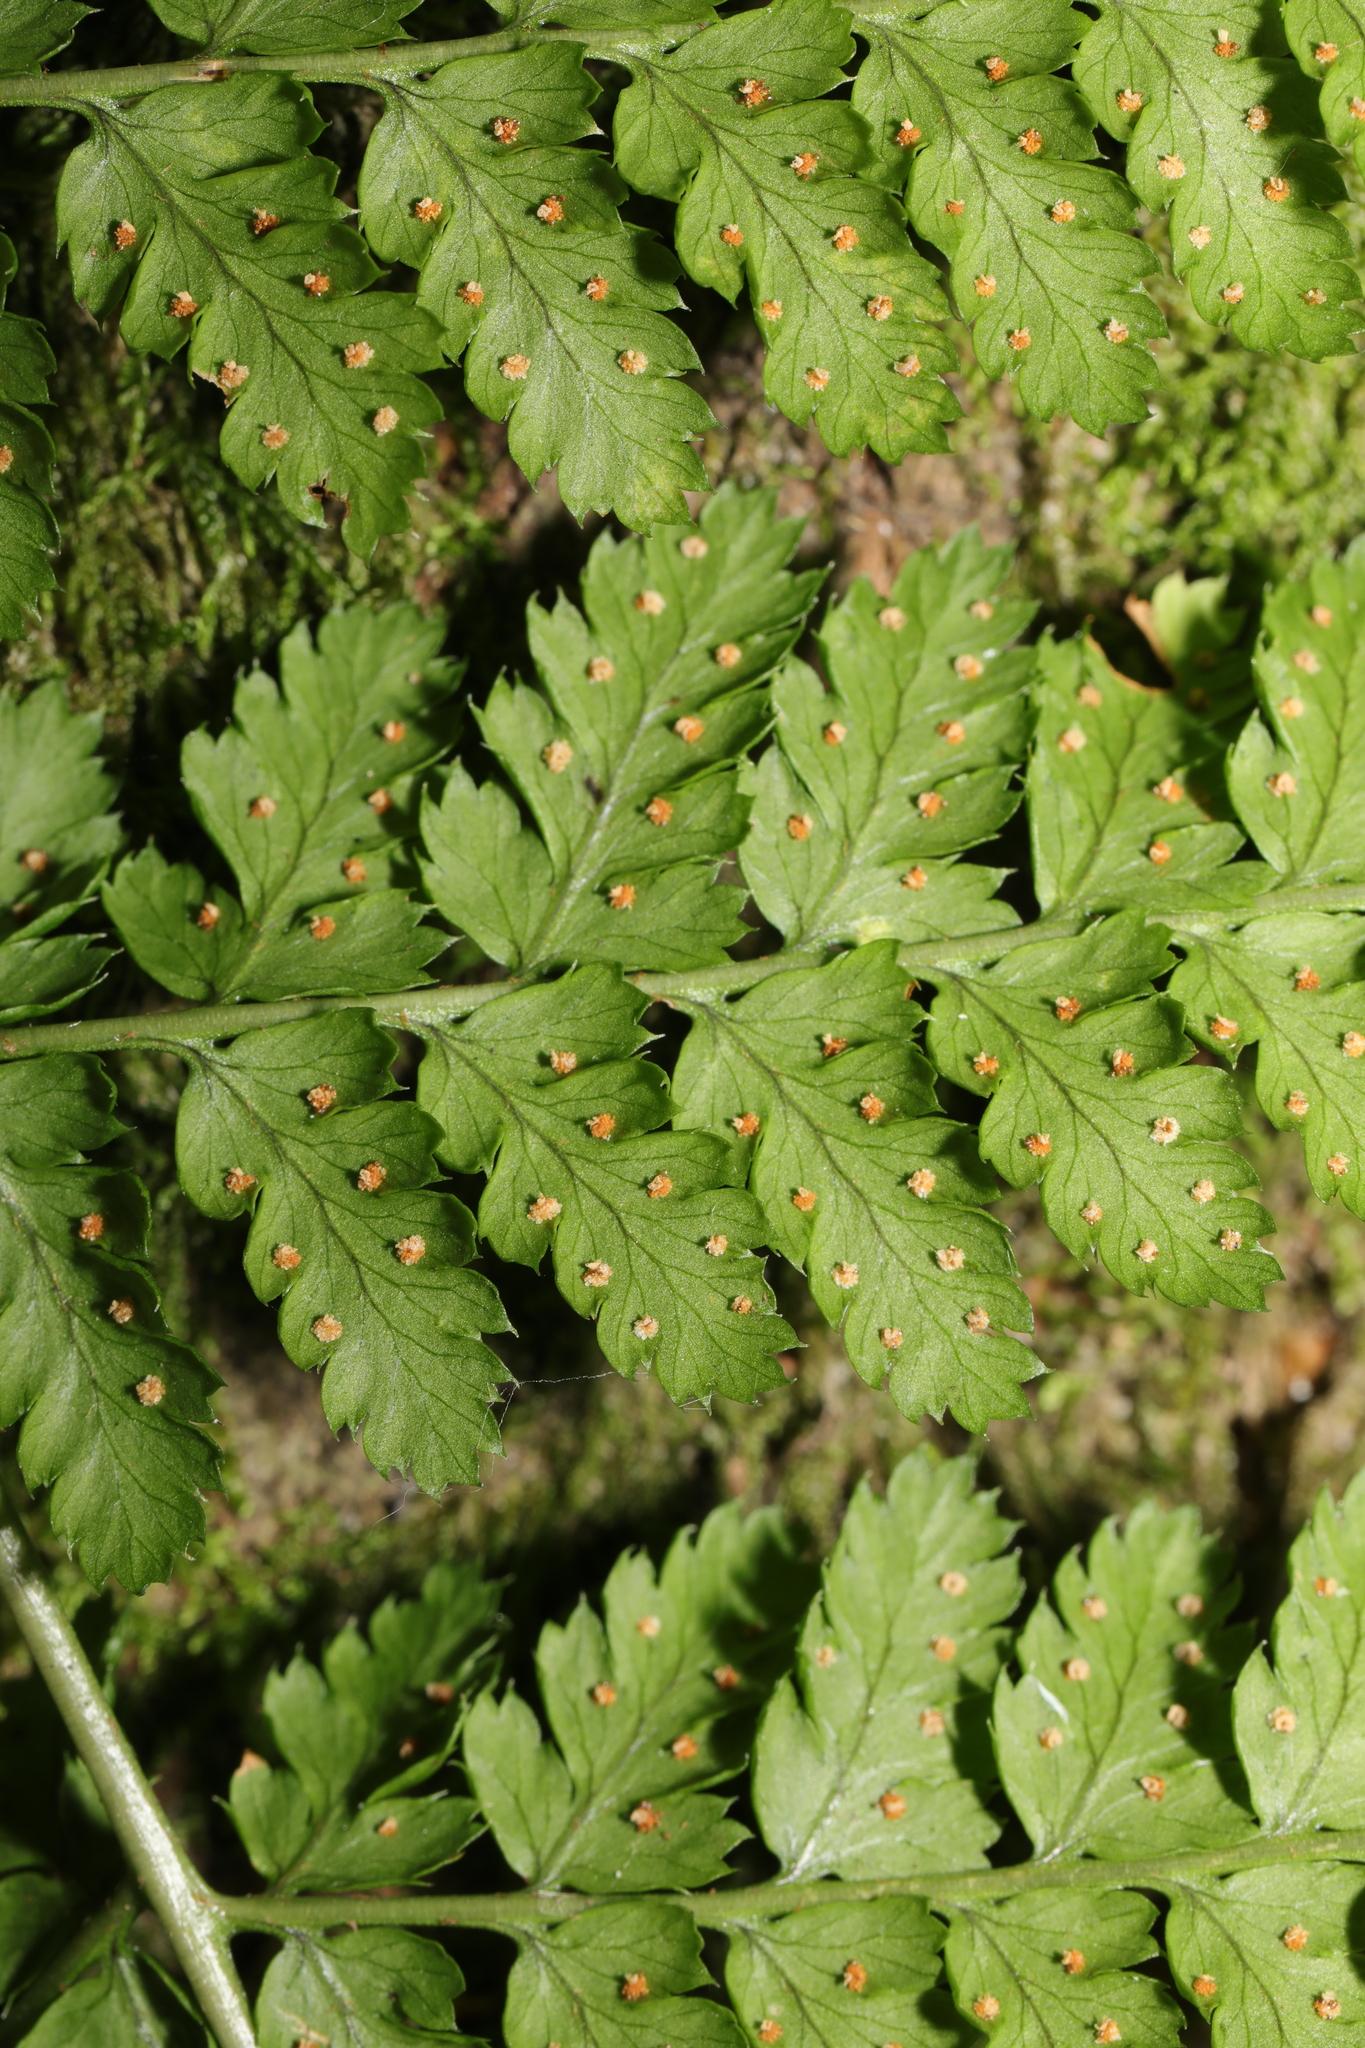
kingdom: Plantae
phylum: Tracheophyta
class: Polypodiopsida
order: Polypodiales
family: Dryopteridaceae
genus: Dryopteris
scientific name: Dryopteris dilatata
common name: Broad buckler-fern
